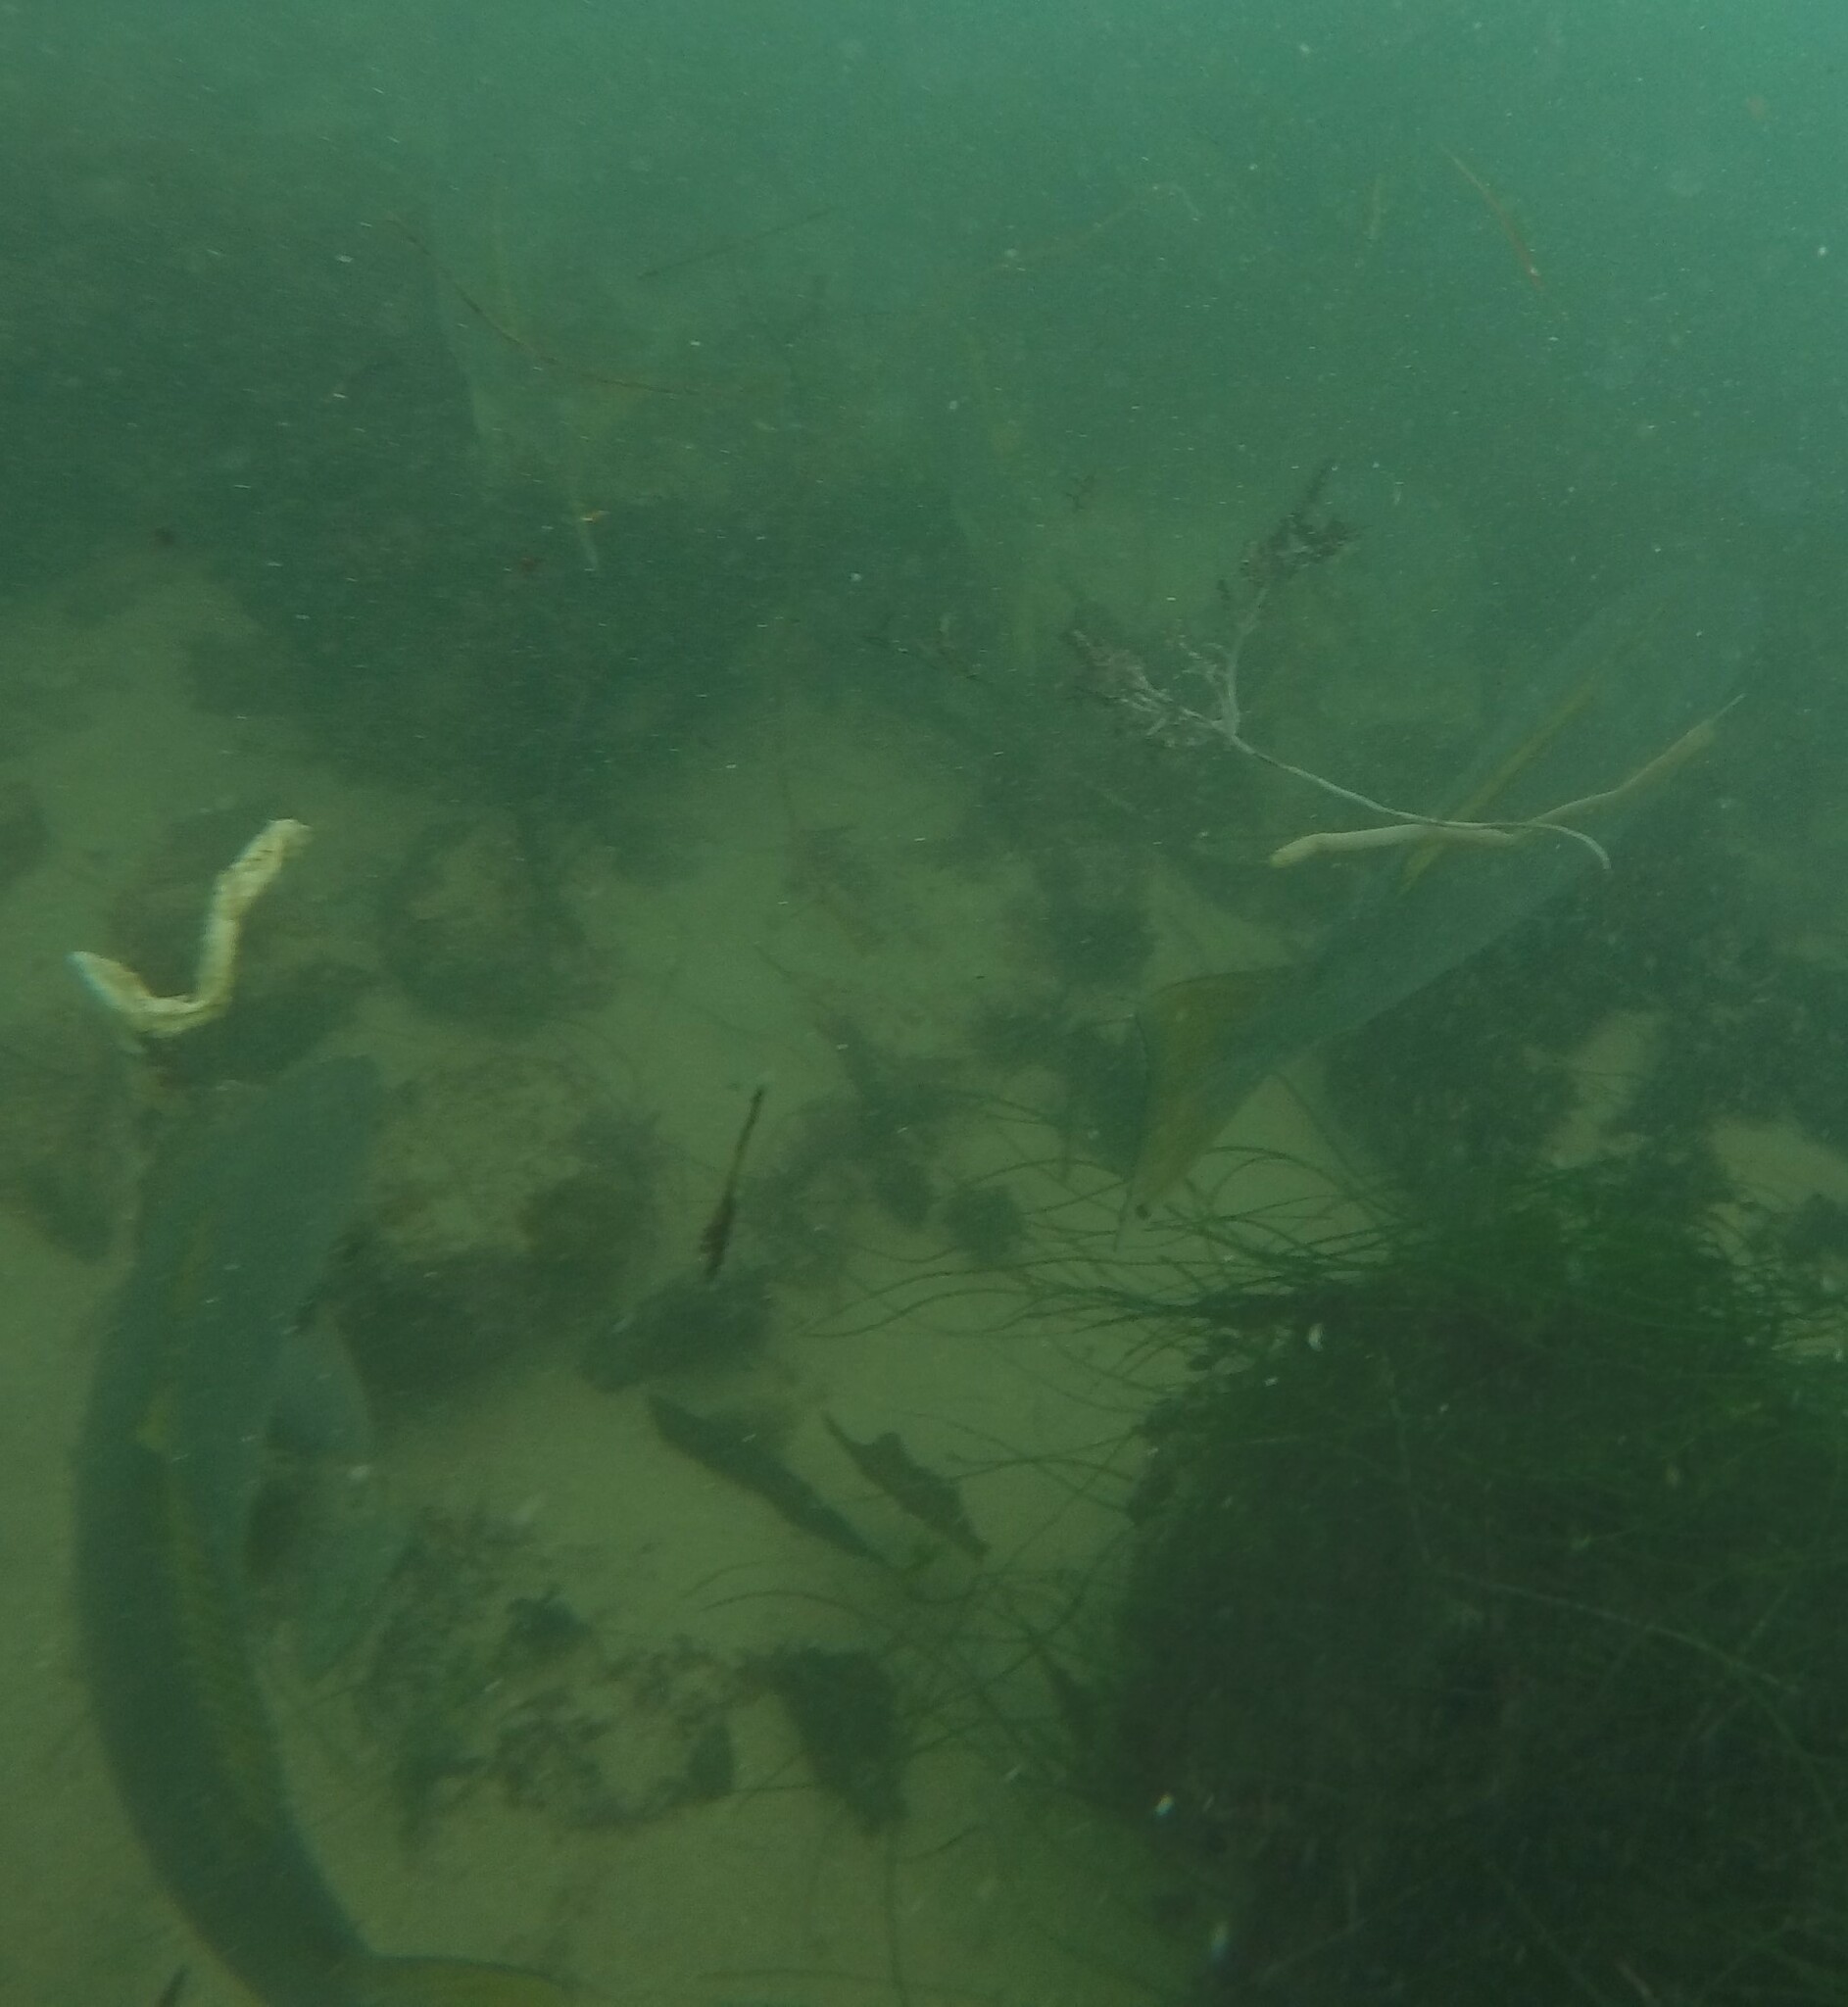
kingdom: Animalia
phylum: Chordata
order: Perciformes
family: Sciaenidae
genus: Atractoscion
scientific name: Atractoscion nobilis
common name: White seabass
